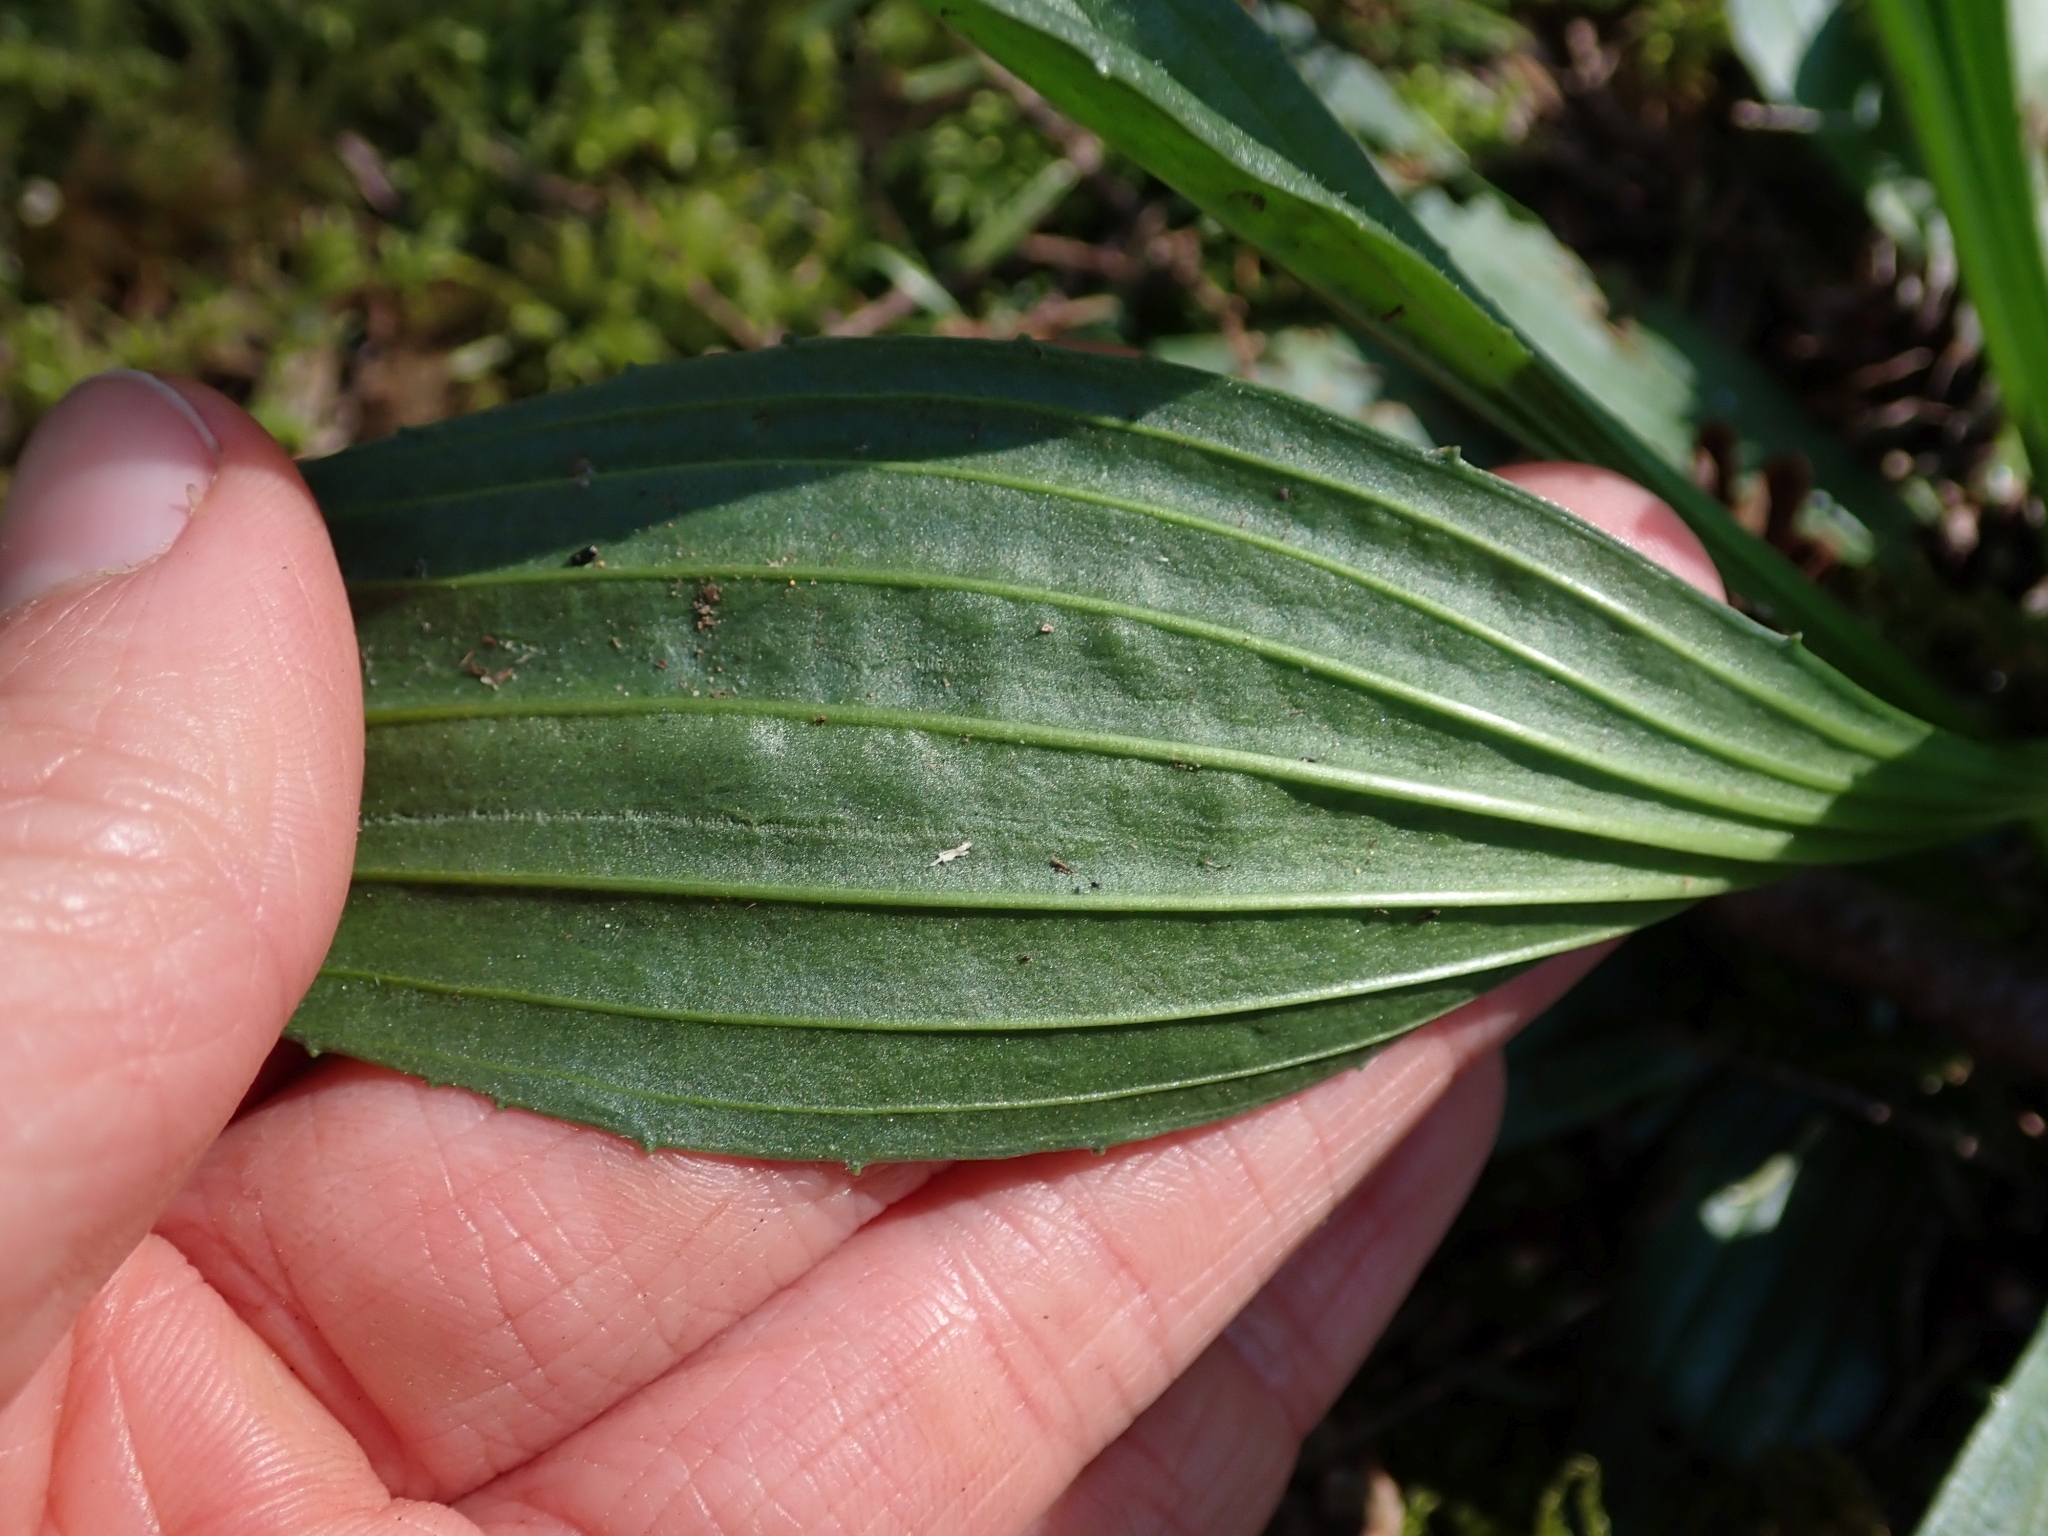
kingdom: Plantae
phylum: Tracheophyta
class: Magnoliopsida
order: Lamiales
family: Plantaginaceae
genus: Plantago
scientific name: Plantago lanceolata
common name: Ribwort plantain
